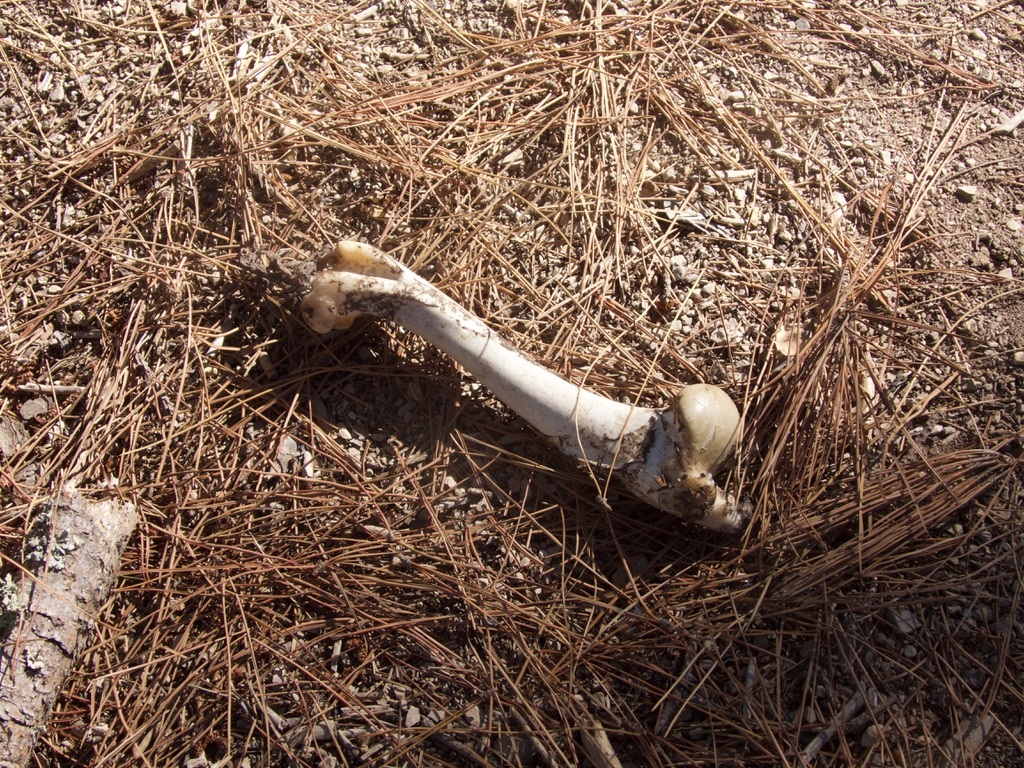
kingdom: Animalia
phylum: Chordata
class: Mammalia
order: Artiodactyla
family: Cervidae
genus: Odocoileus
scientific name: Odocoileus hemionus
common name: Mule deer
